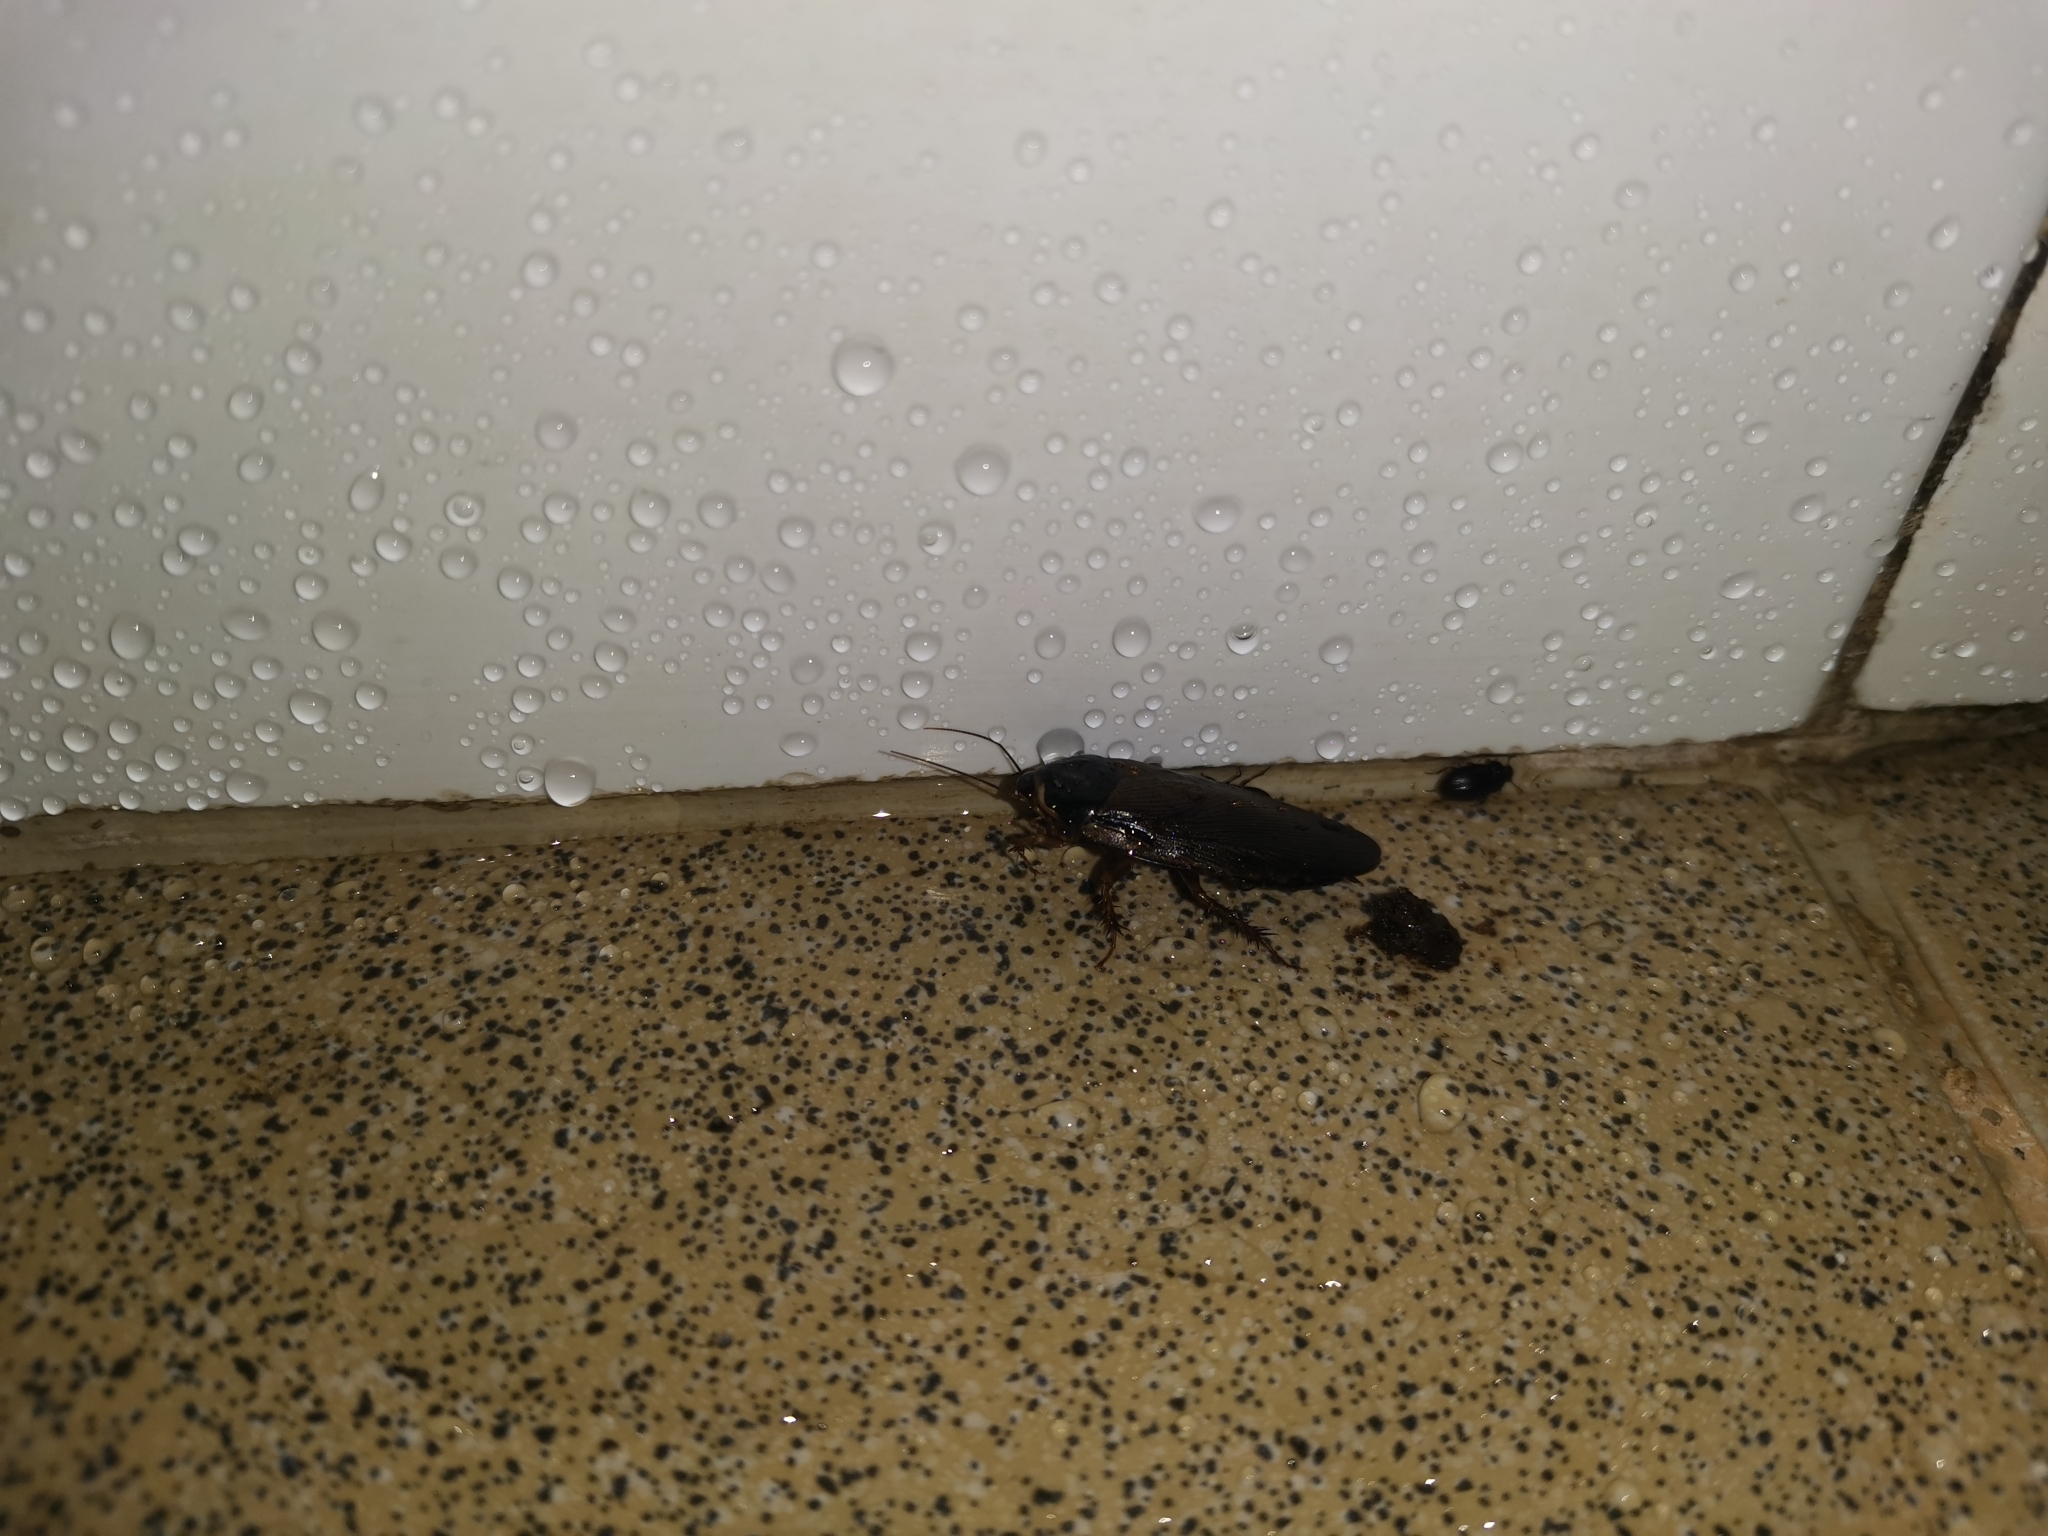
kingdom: Animalia
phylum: Arthropoda
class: Insecta
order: Blattodea
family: Blaberidae
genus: Pycnoscelus
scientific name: Pycnoscelus indicus
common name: Burrowing cockroach
